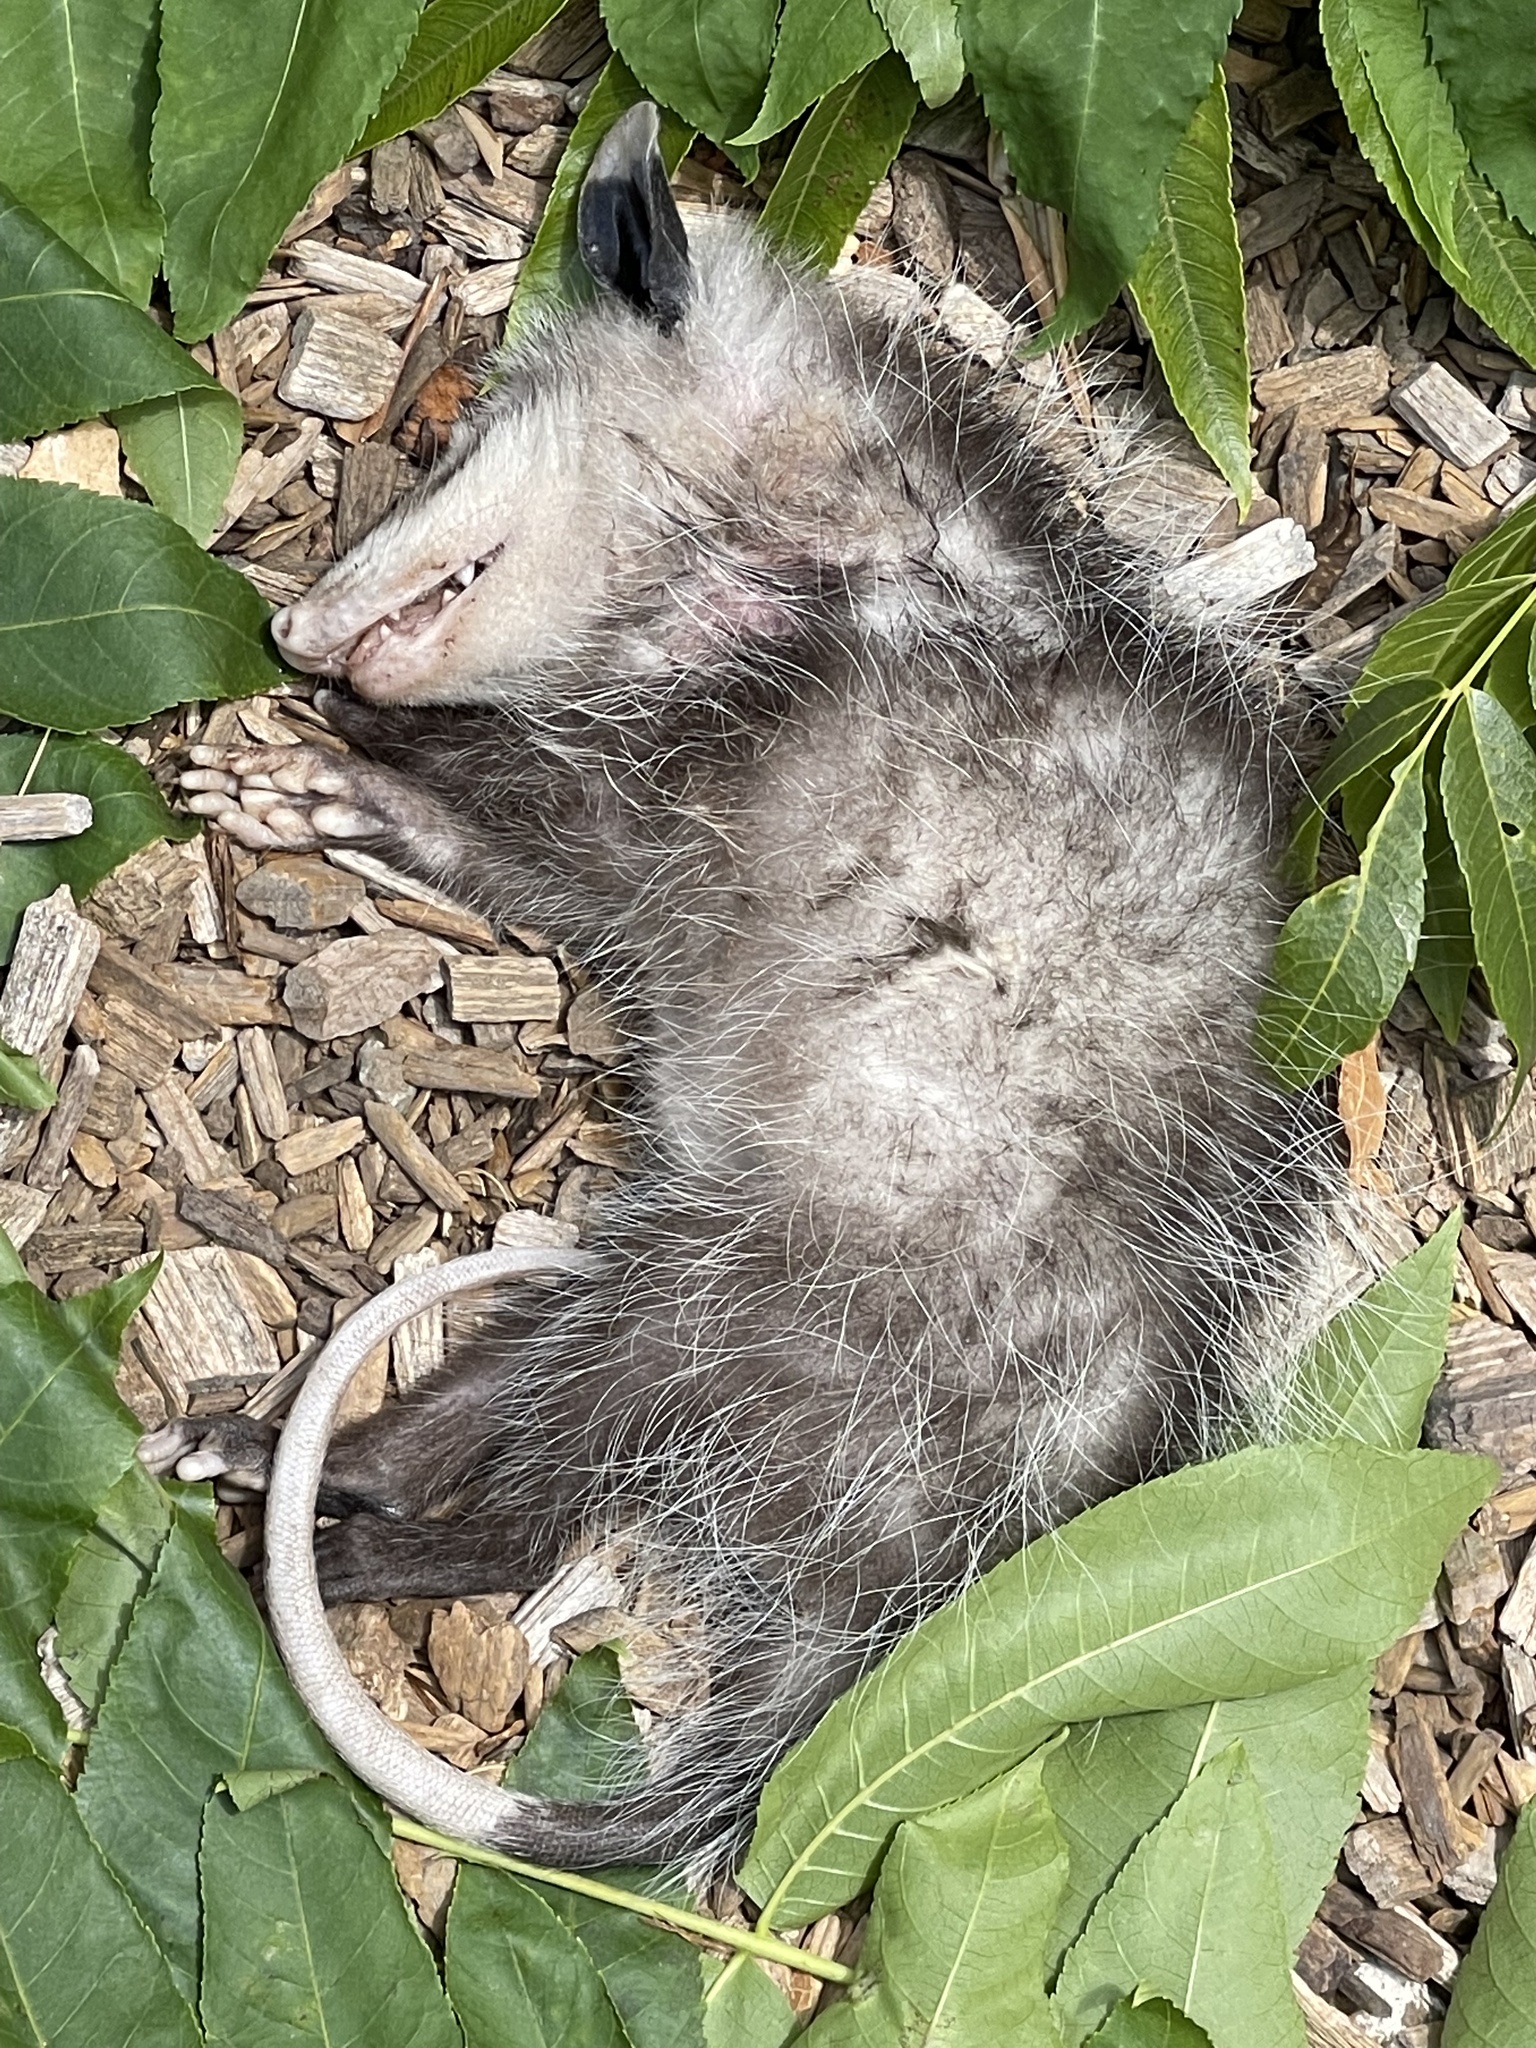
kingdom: Animalia
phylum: Chordata
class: Mammalia
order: Didelphimorphia
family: Didelphidae
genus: Didelphis
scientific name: Didelphis virginiana
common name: Virginia opossum
